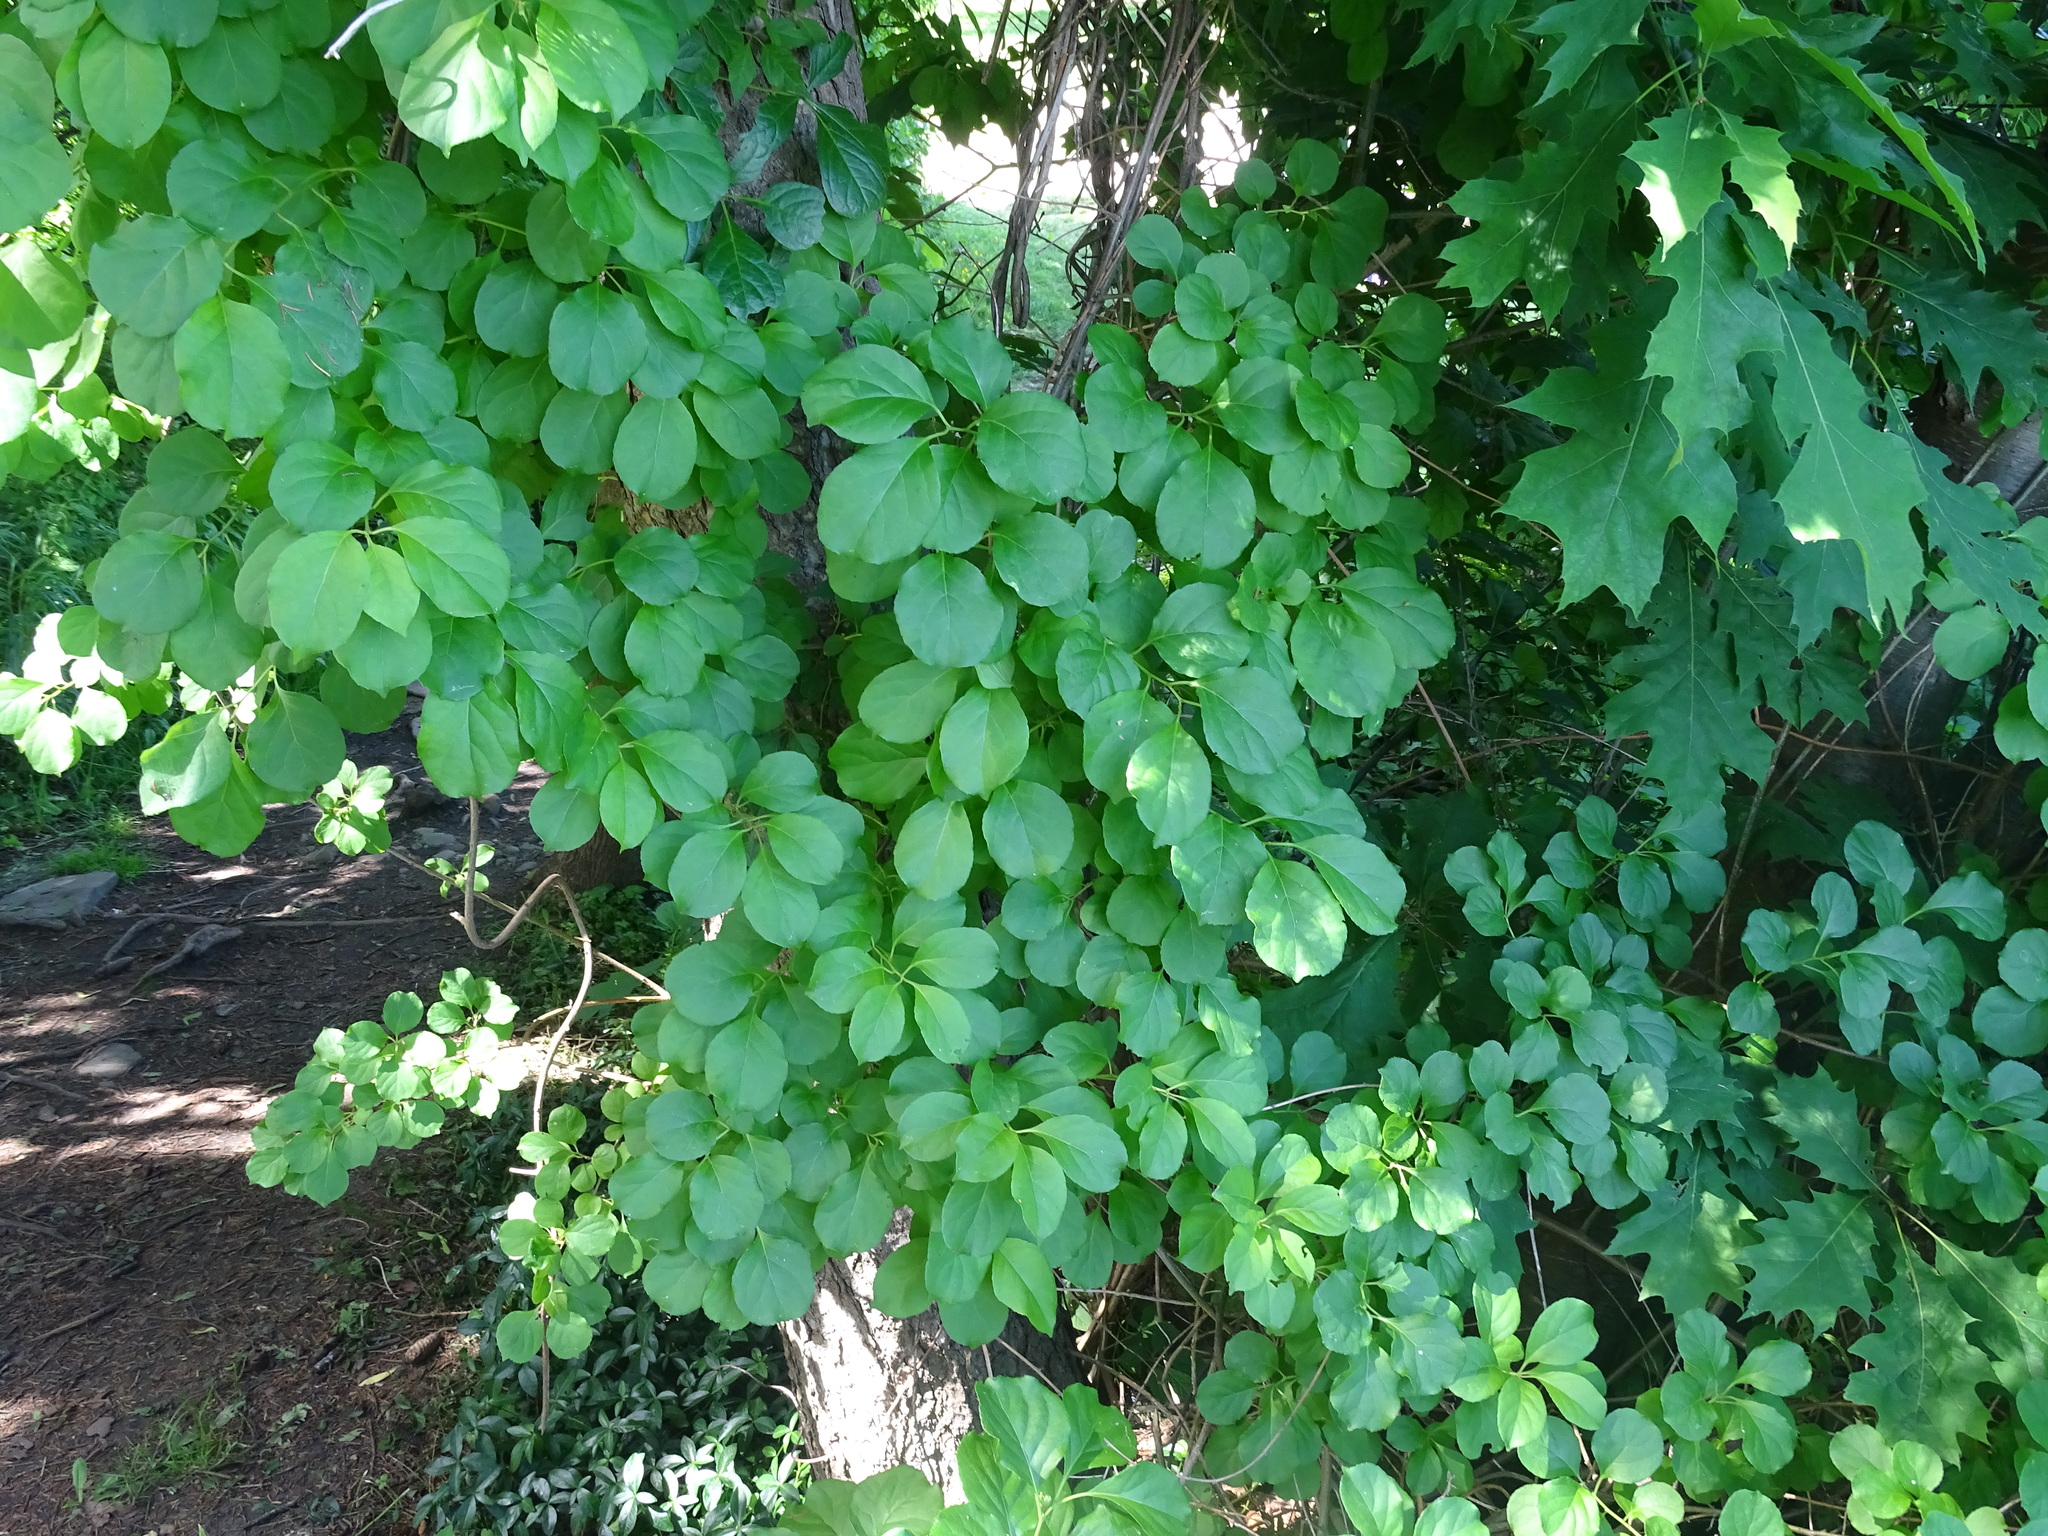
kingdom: Plantae
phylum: Tracheophyta
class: Magnoliopsida
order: Celastrales
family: Celastraceae
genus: Celastrus
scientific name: Celastrus orbiculatus
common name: Oriental bittersweet
